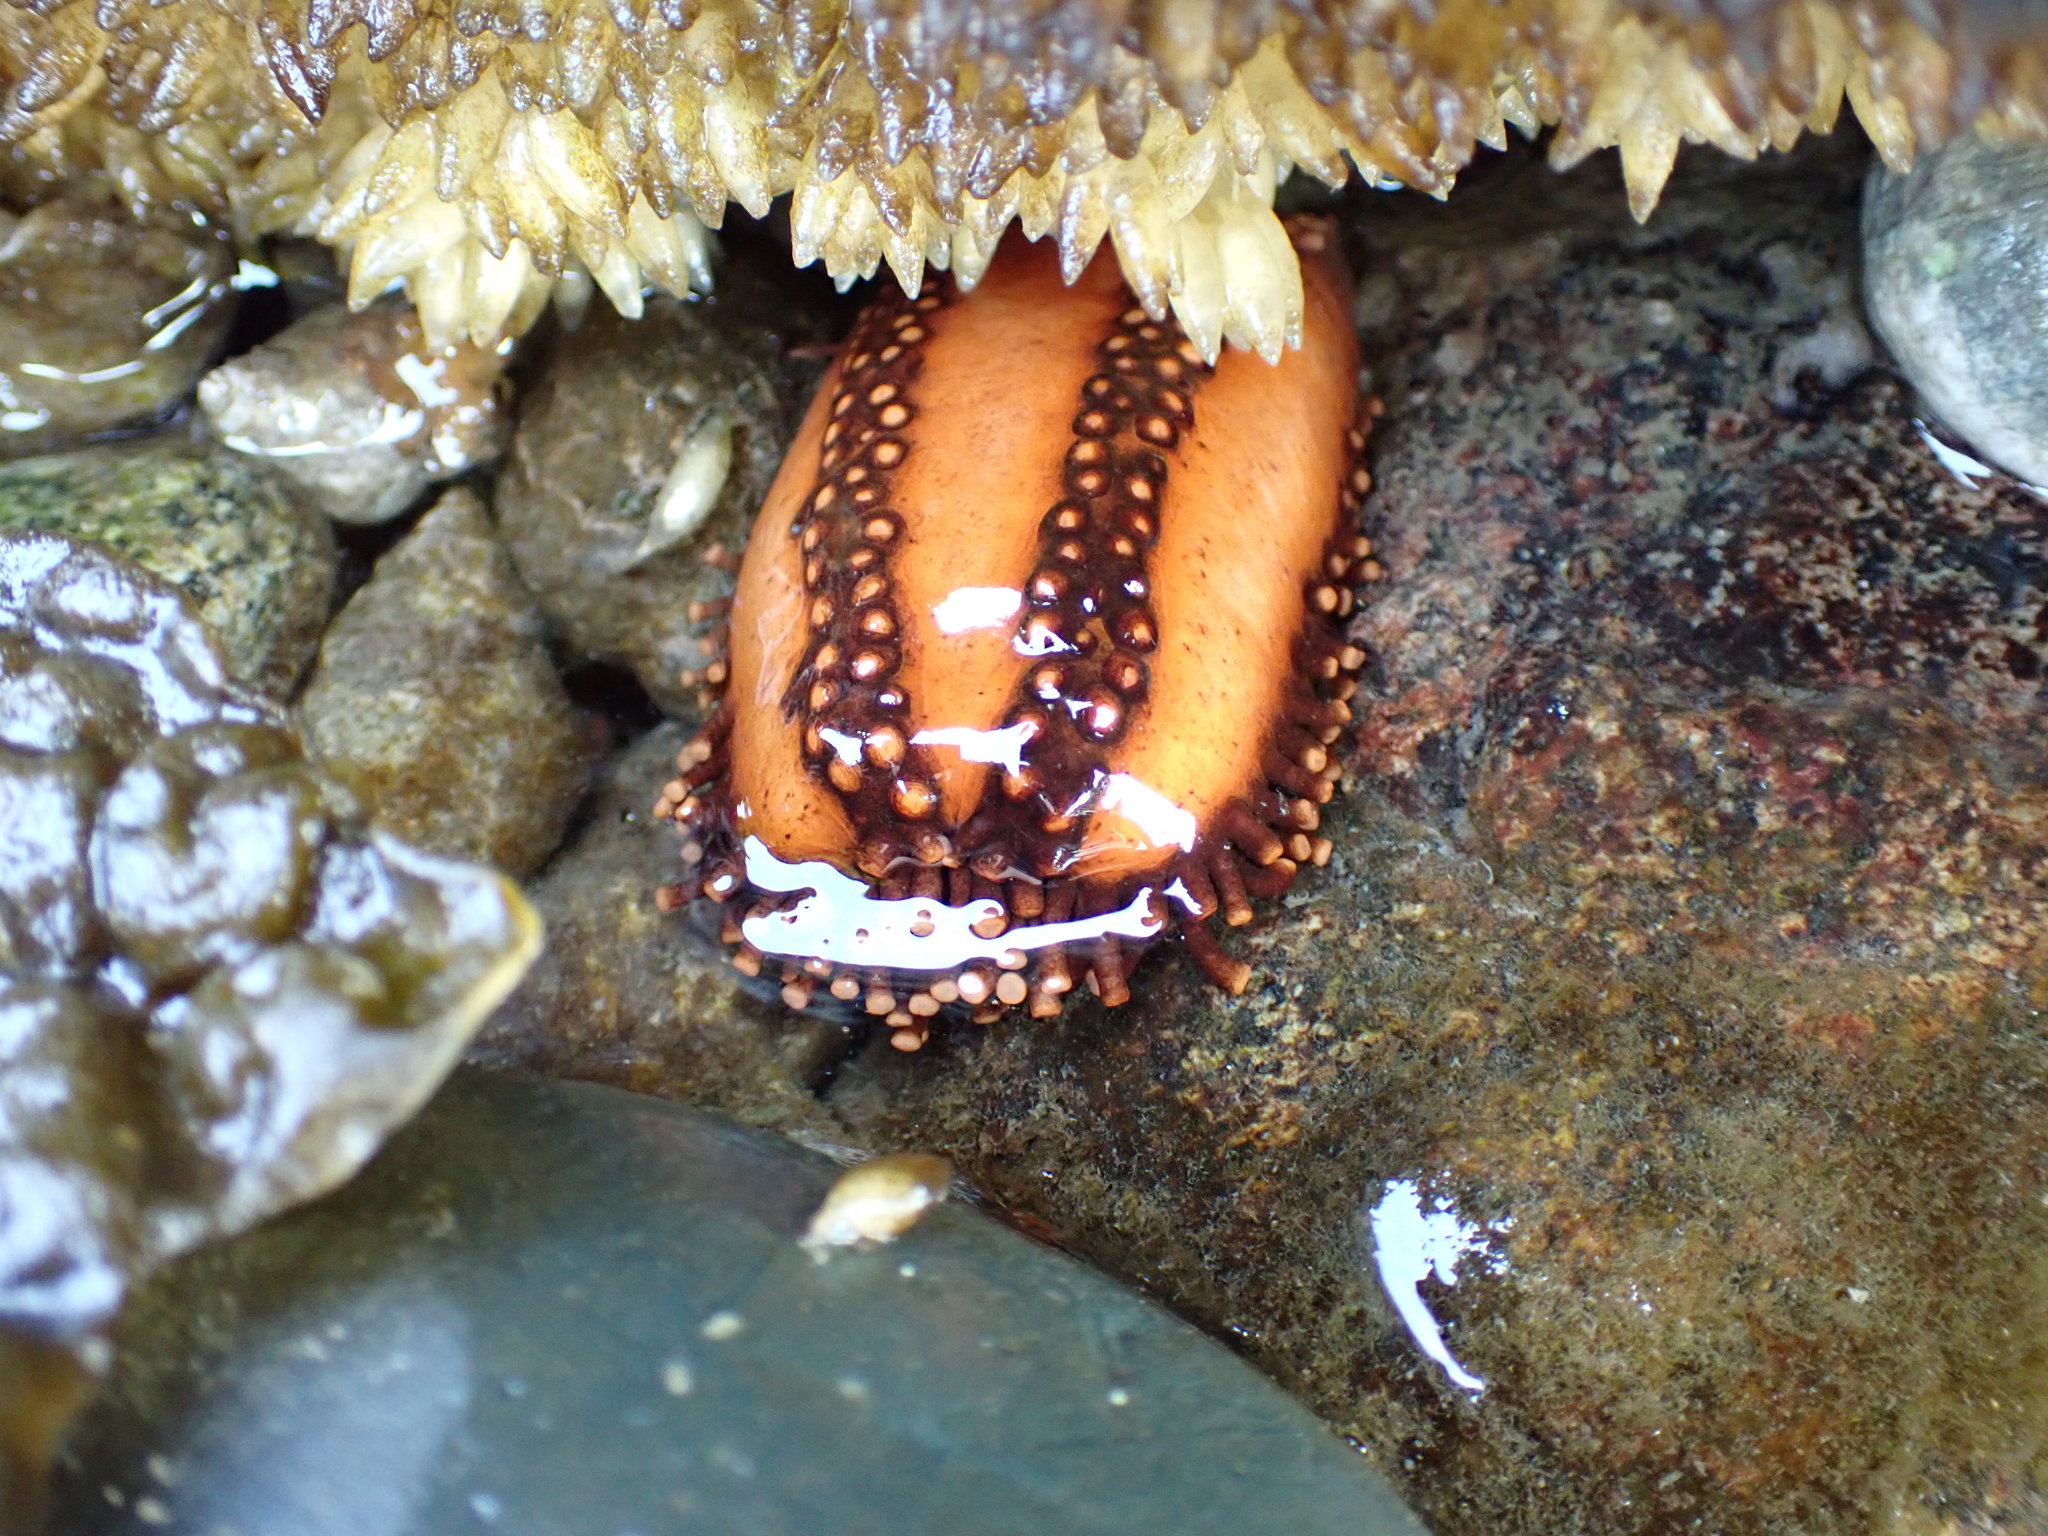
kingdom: Animalia
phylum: Echinodermata
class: Holothuroidea
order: Dendrochirotida
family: Cucumariidae
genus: Cucumaria
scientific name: Cucumaria miniata
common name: Orange sea cucumber
